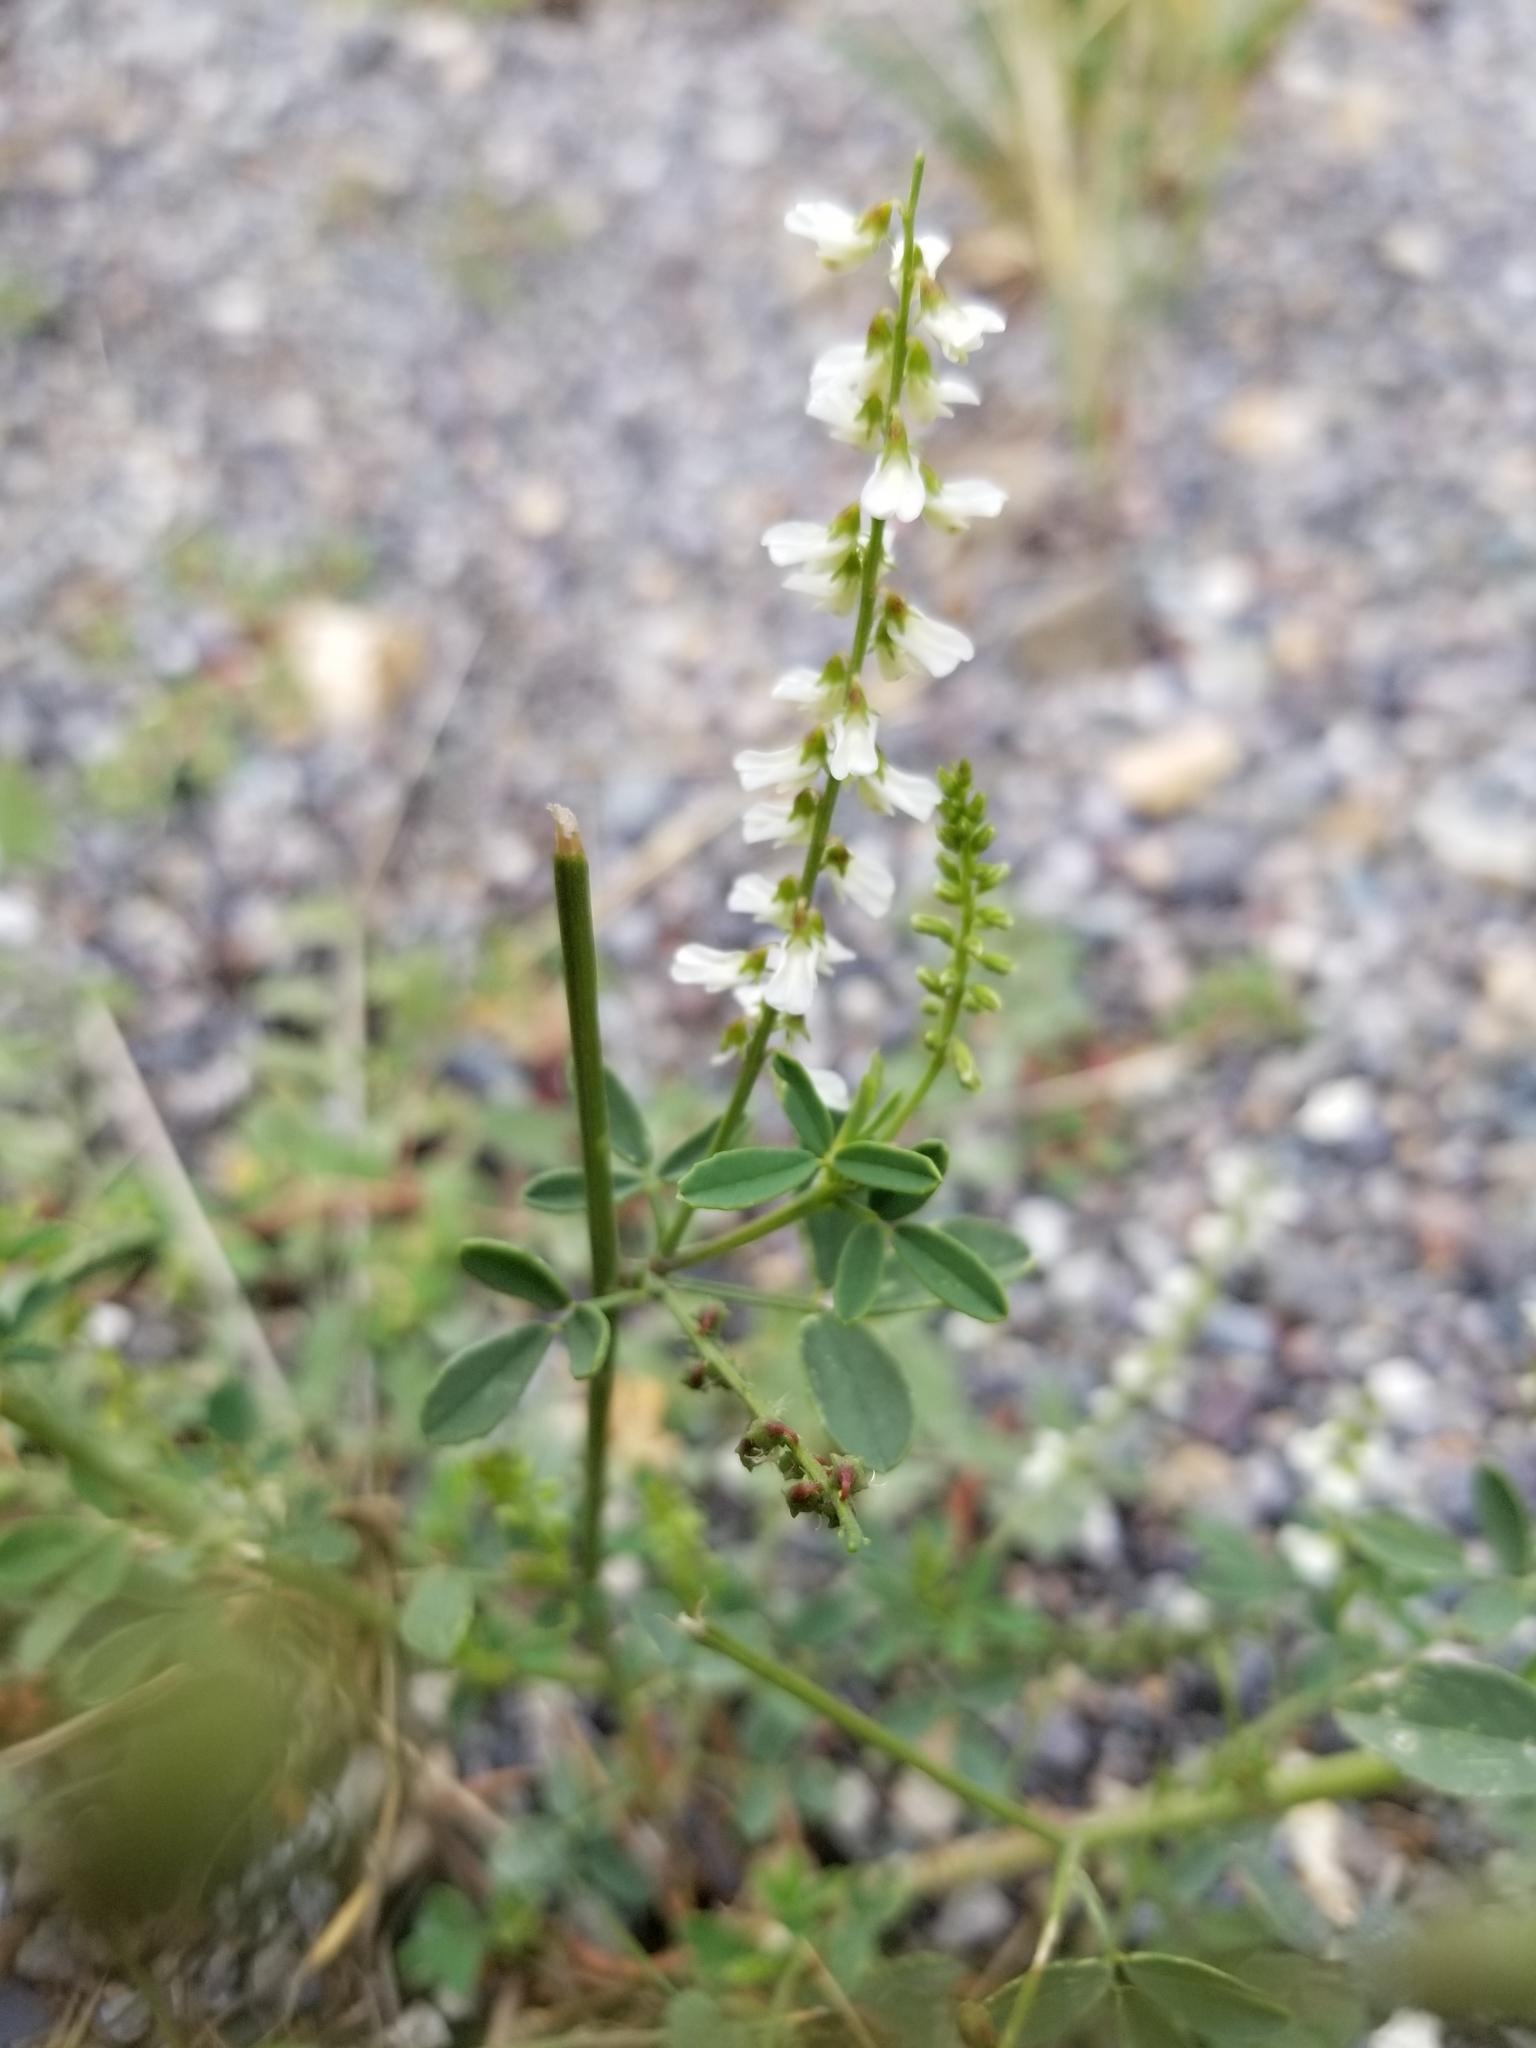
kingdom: Plantae
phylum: Tracheophyta
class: Magnoliopsida
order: Fabales
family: Fabaceae
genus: Melilotus
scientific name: Melilotus albus
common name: White melilot
